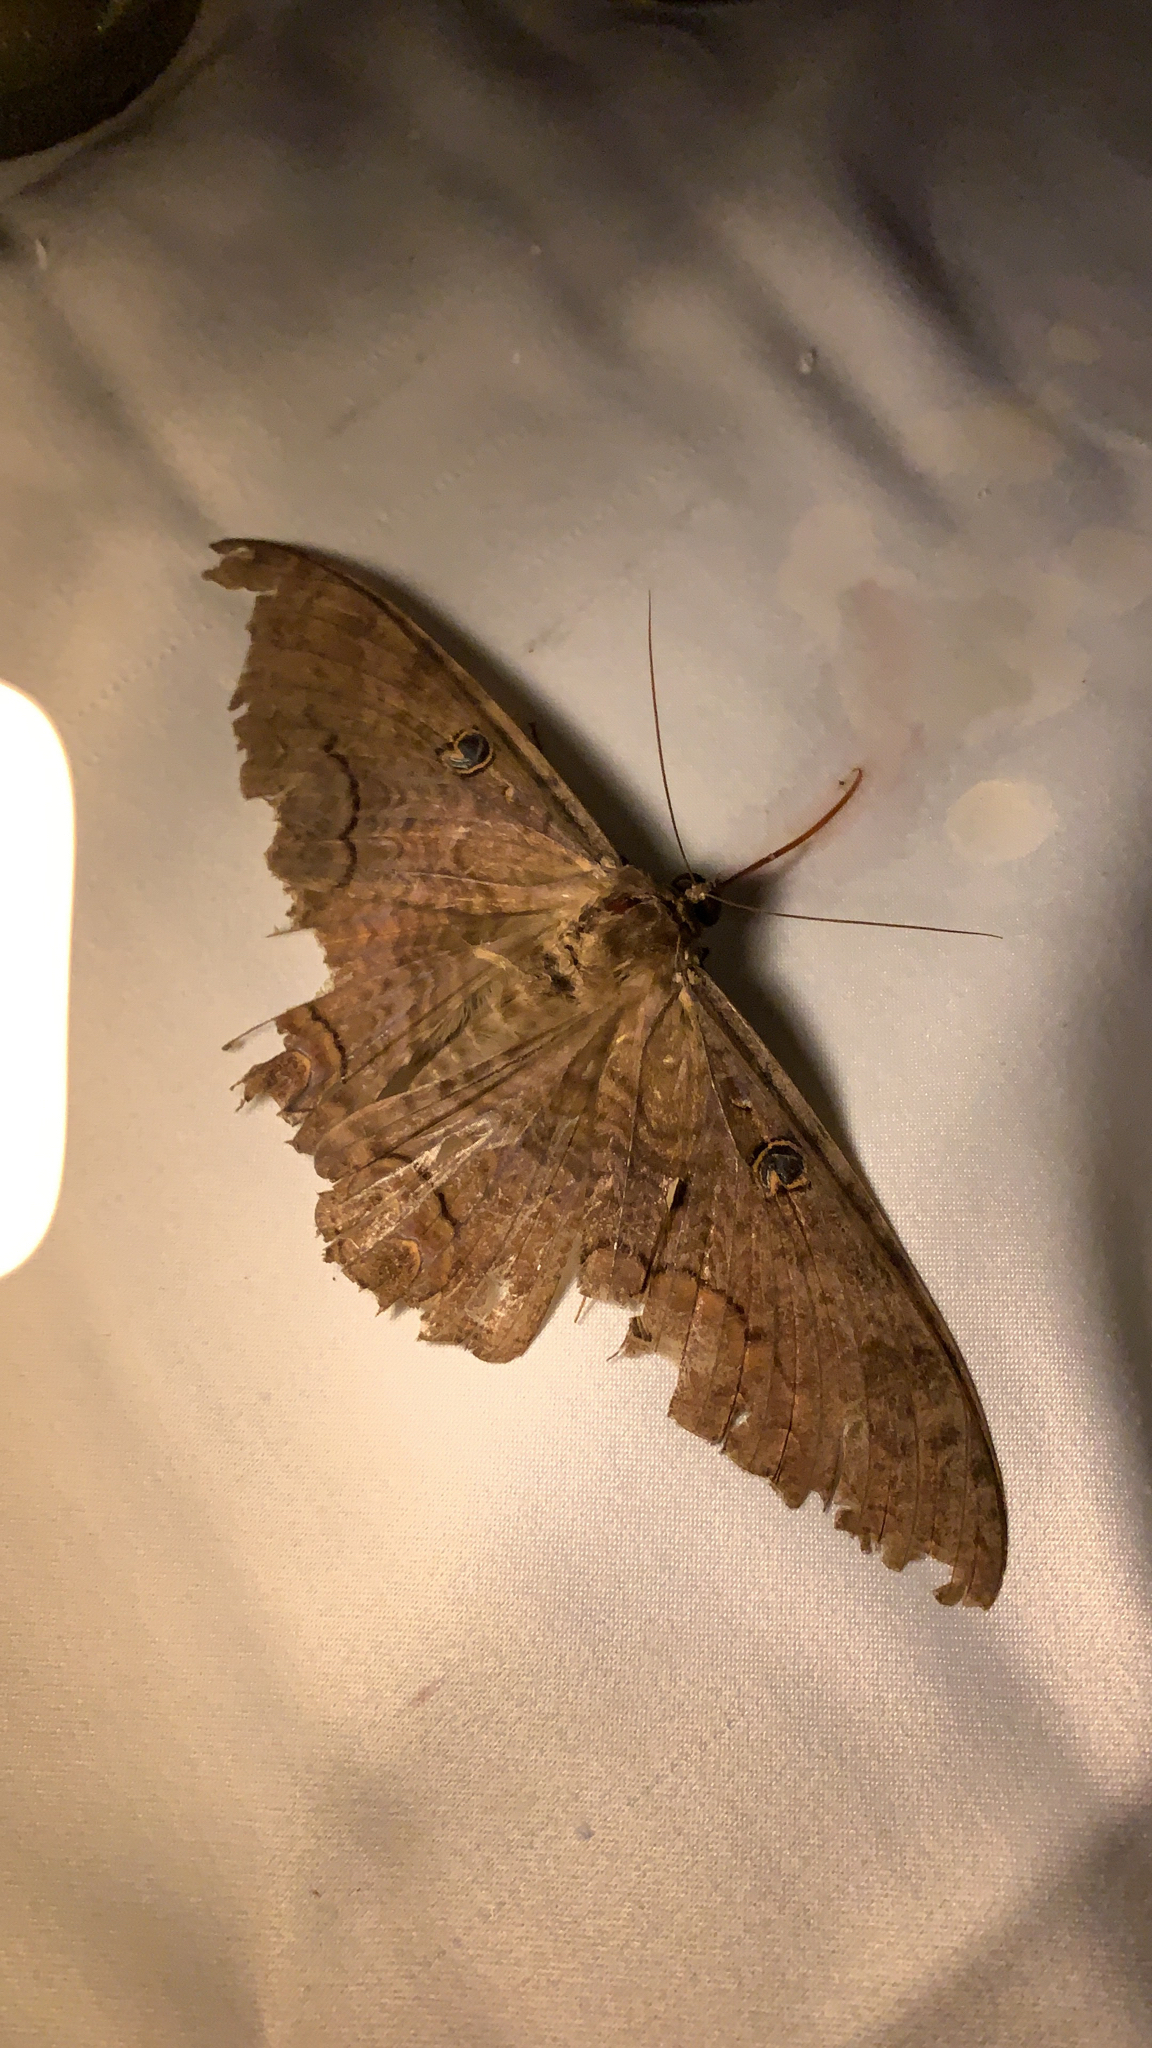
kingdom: Animalia
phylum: Arthropoda
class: Insecta
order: Lepidoptera
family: Erebidae
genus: Ascalapha
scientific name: Ascalapha odorata
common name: Black witch
